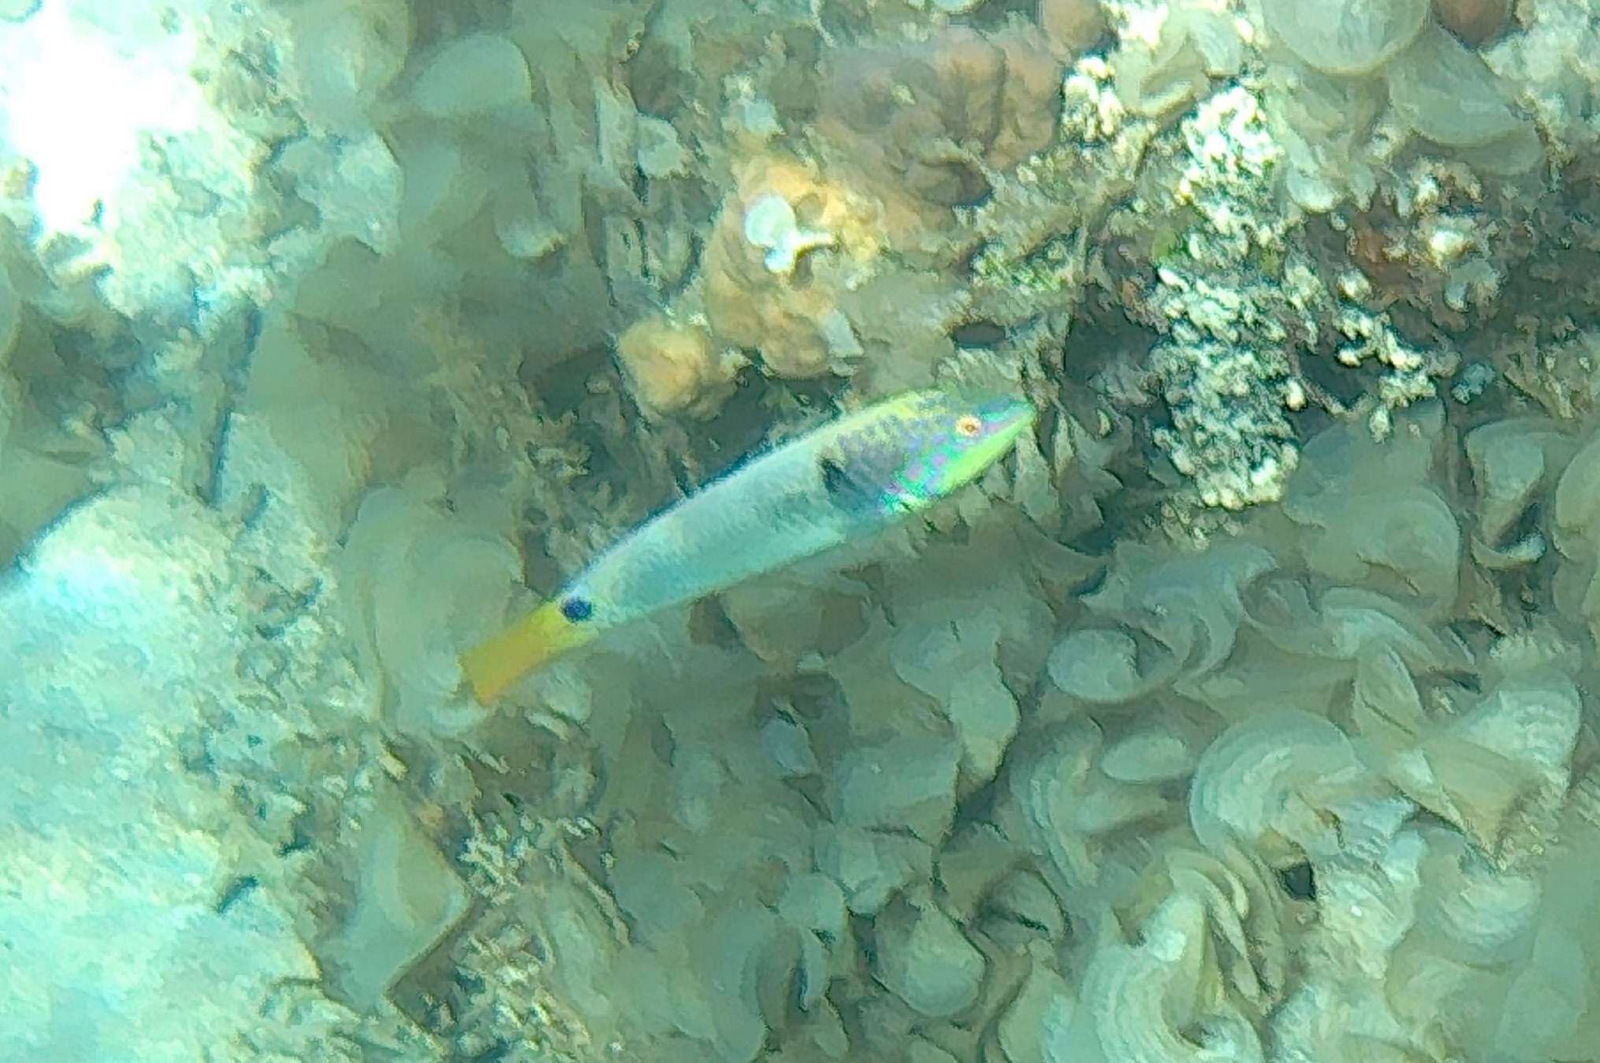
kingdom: Animalia
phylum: Chordata
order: Perciformes
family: Labridae
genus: Halichoeres
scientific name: Halichoeres trimaculatus
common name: Three-spot wrasse
